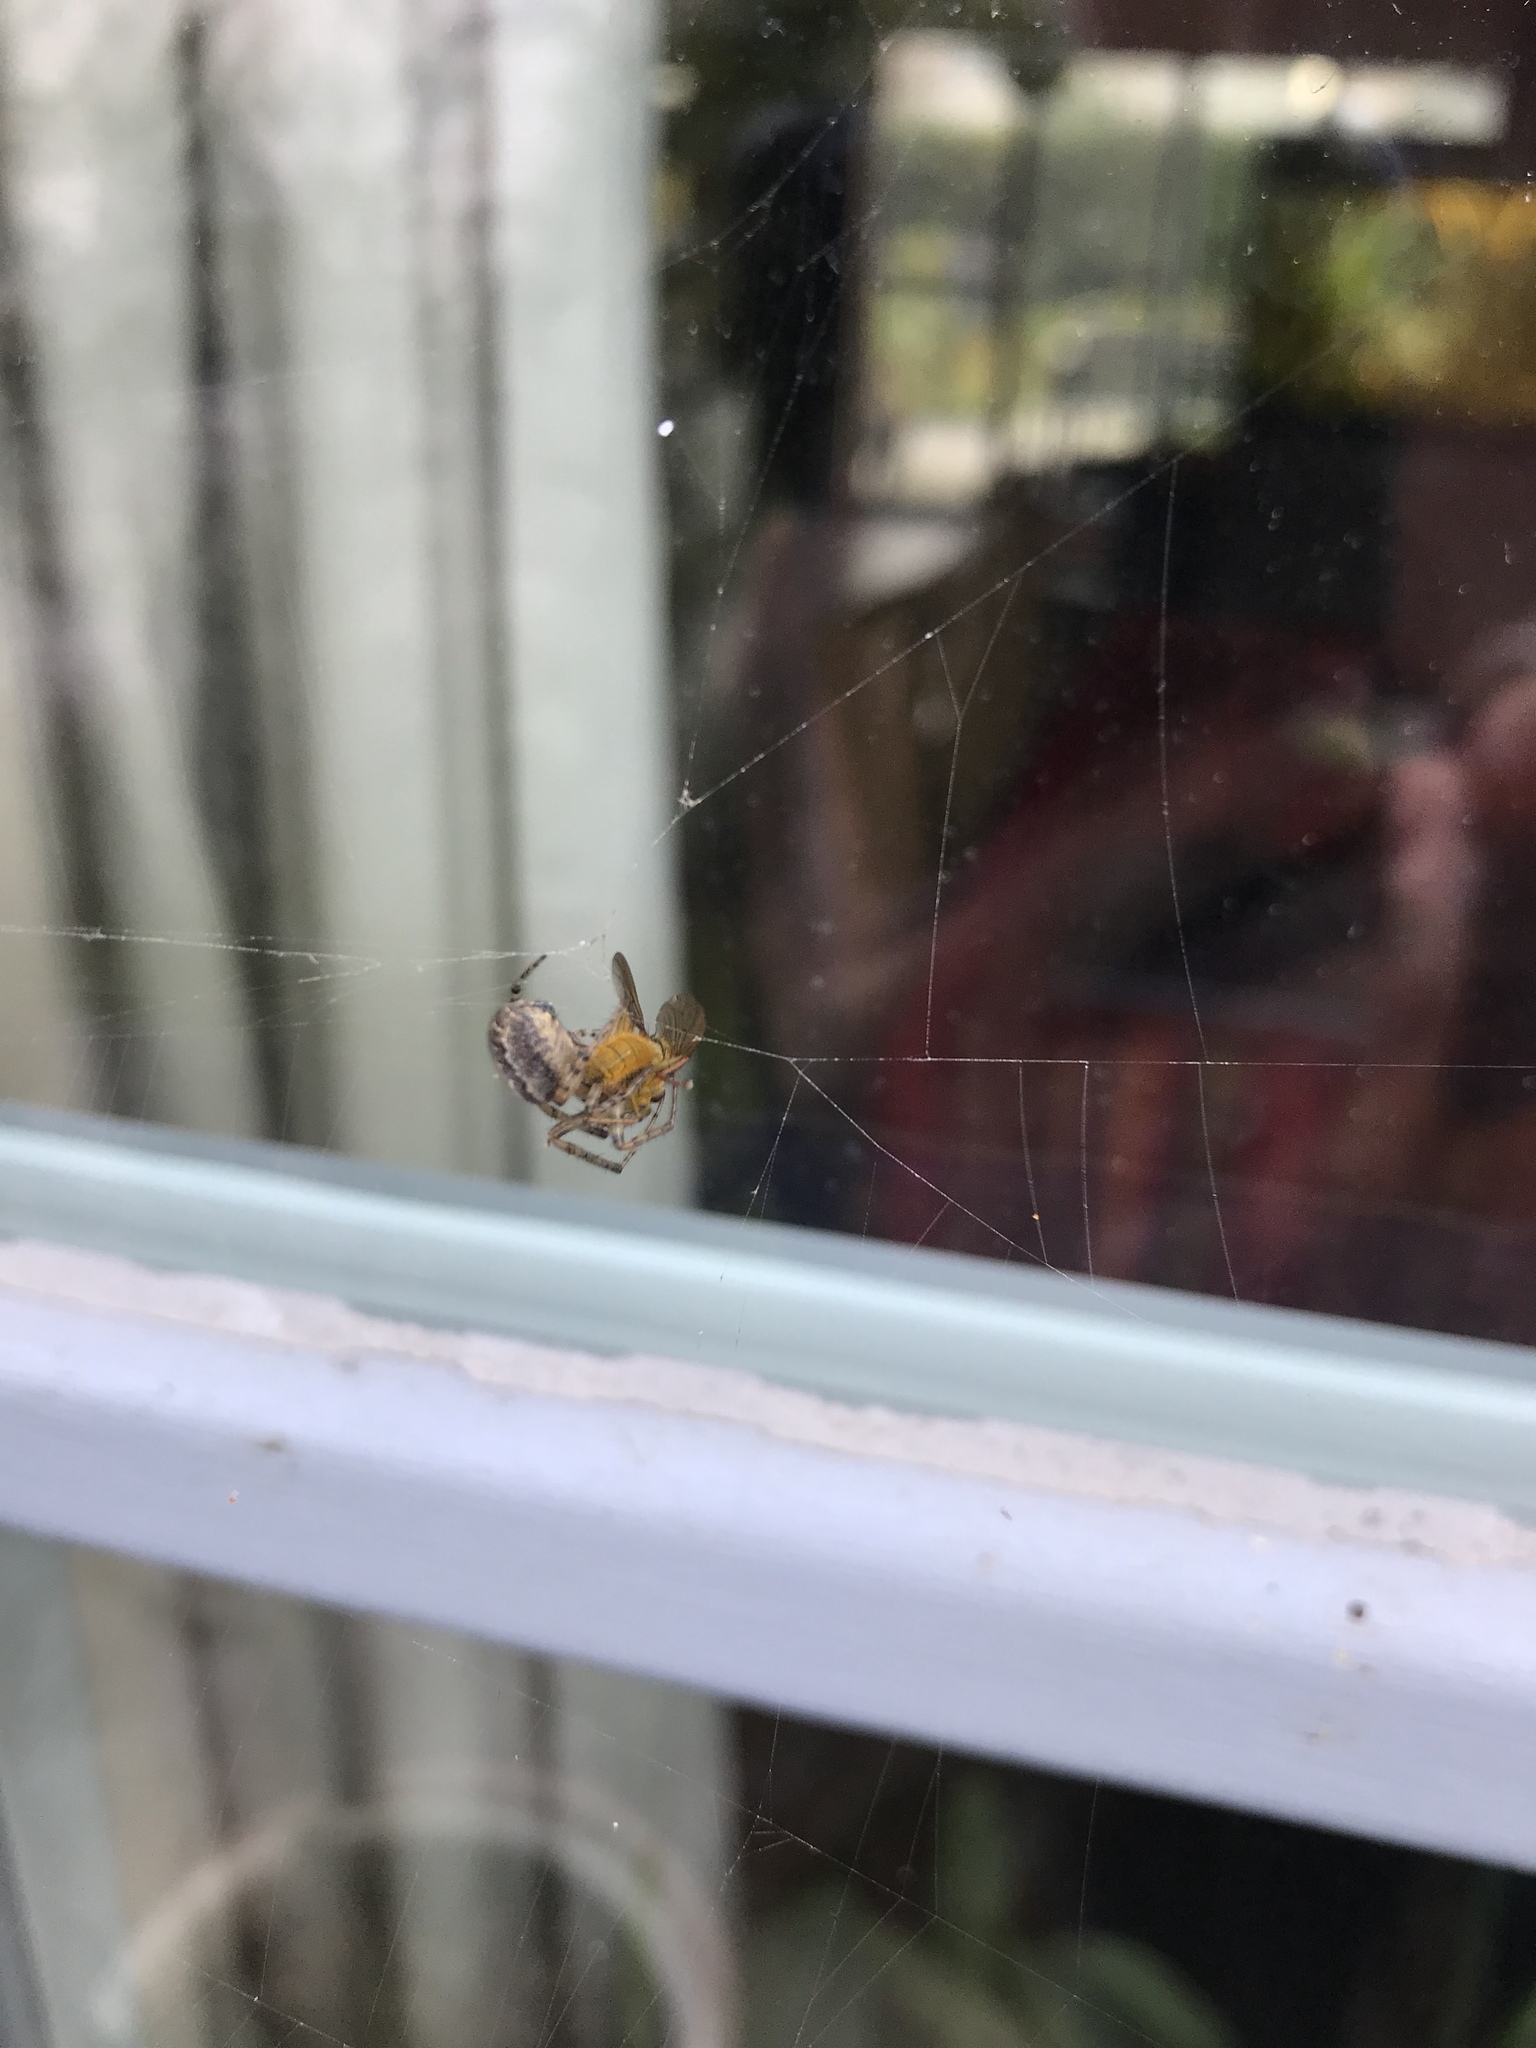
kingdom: Animalia
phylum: Arthropoda
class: Insecta
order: Diptera
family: Scathophagidae
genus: Scathophaga
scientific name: Scathophaga stercoraria
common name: Yellow dung fly
